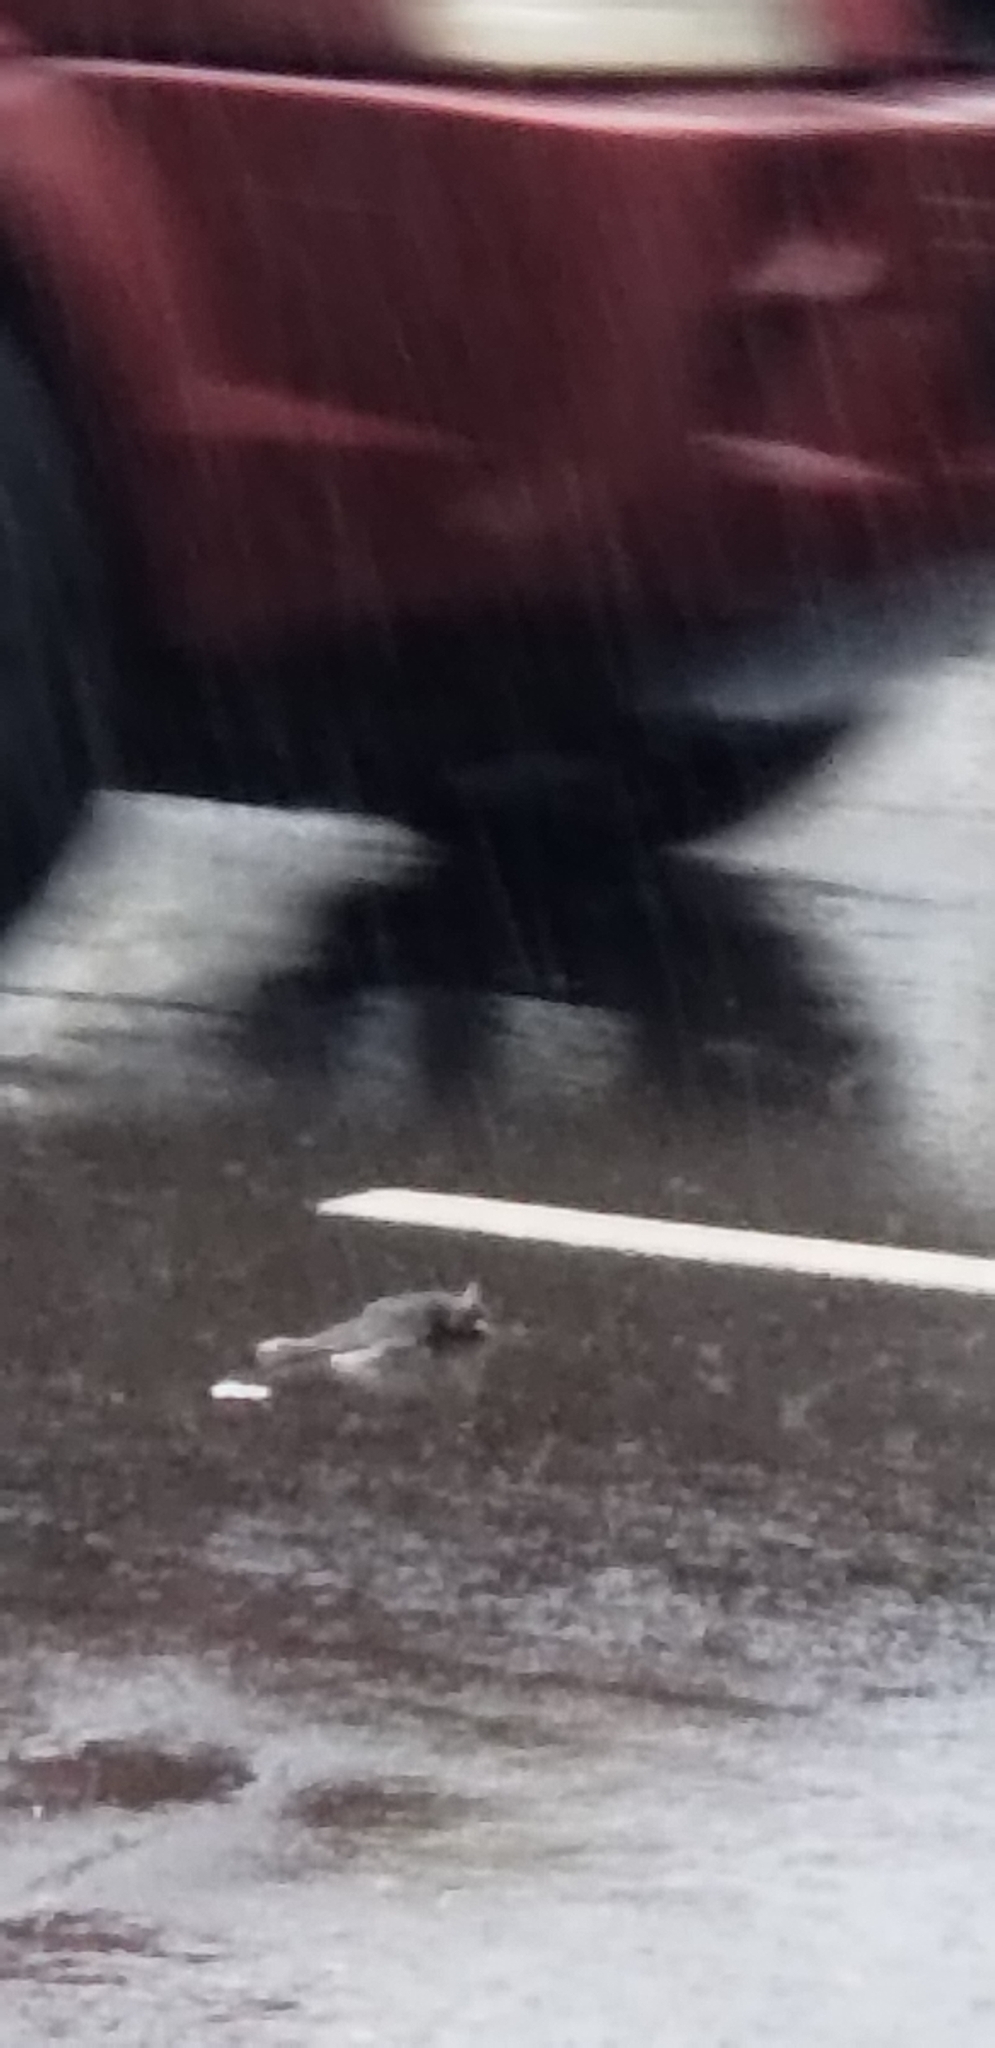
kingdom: Animalia
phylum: Chordata
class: Mammalia
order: Rodentia
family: Muridae
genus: Rattus
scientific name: Rattus rattus
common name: Black rat
